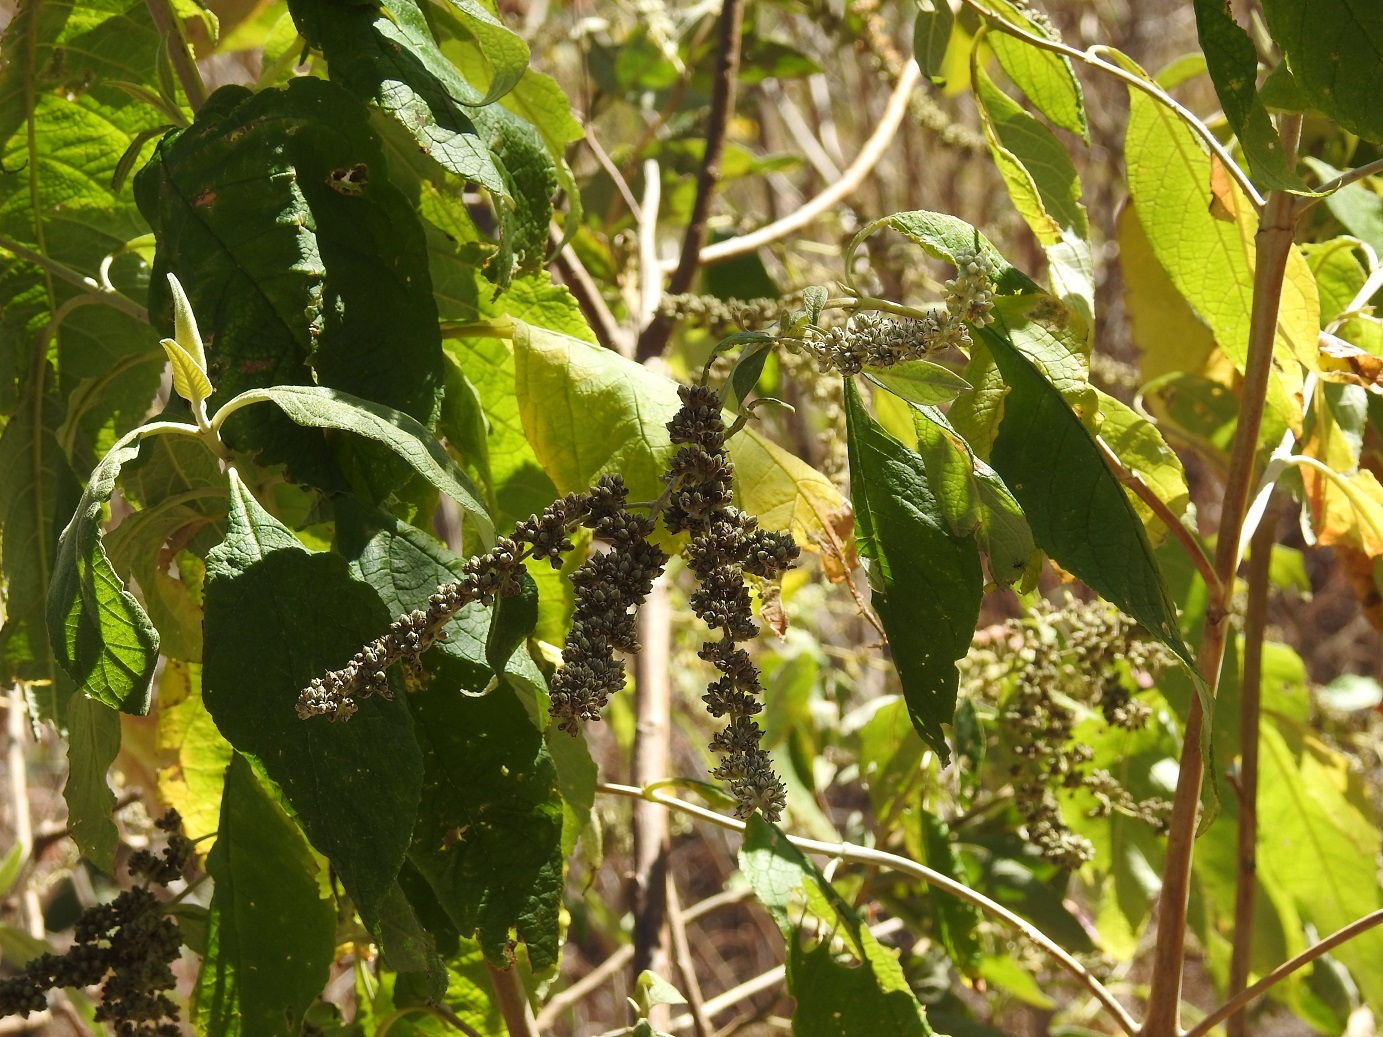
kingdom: Plantae
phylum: Tracheophyta
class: Magnoliopsida
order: Lamiales
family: Scrophulariaceae
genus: Buddleja
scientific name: Buddleja americana
